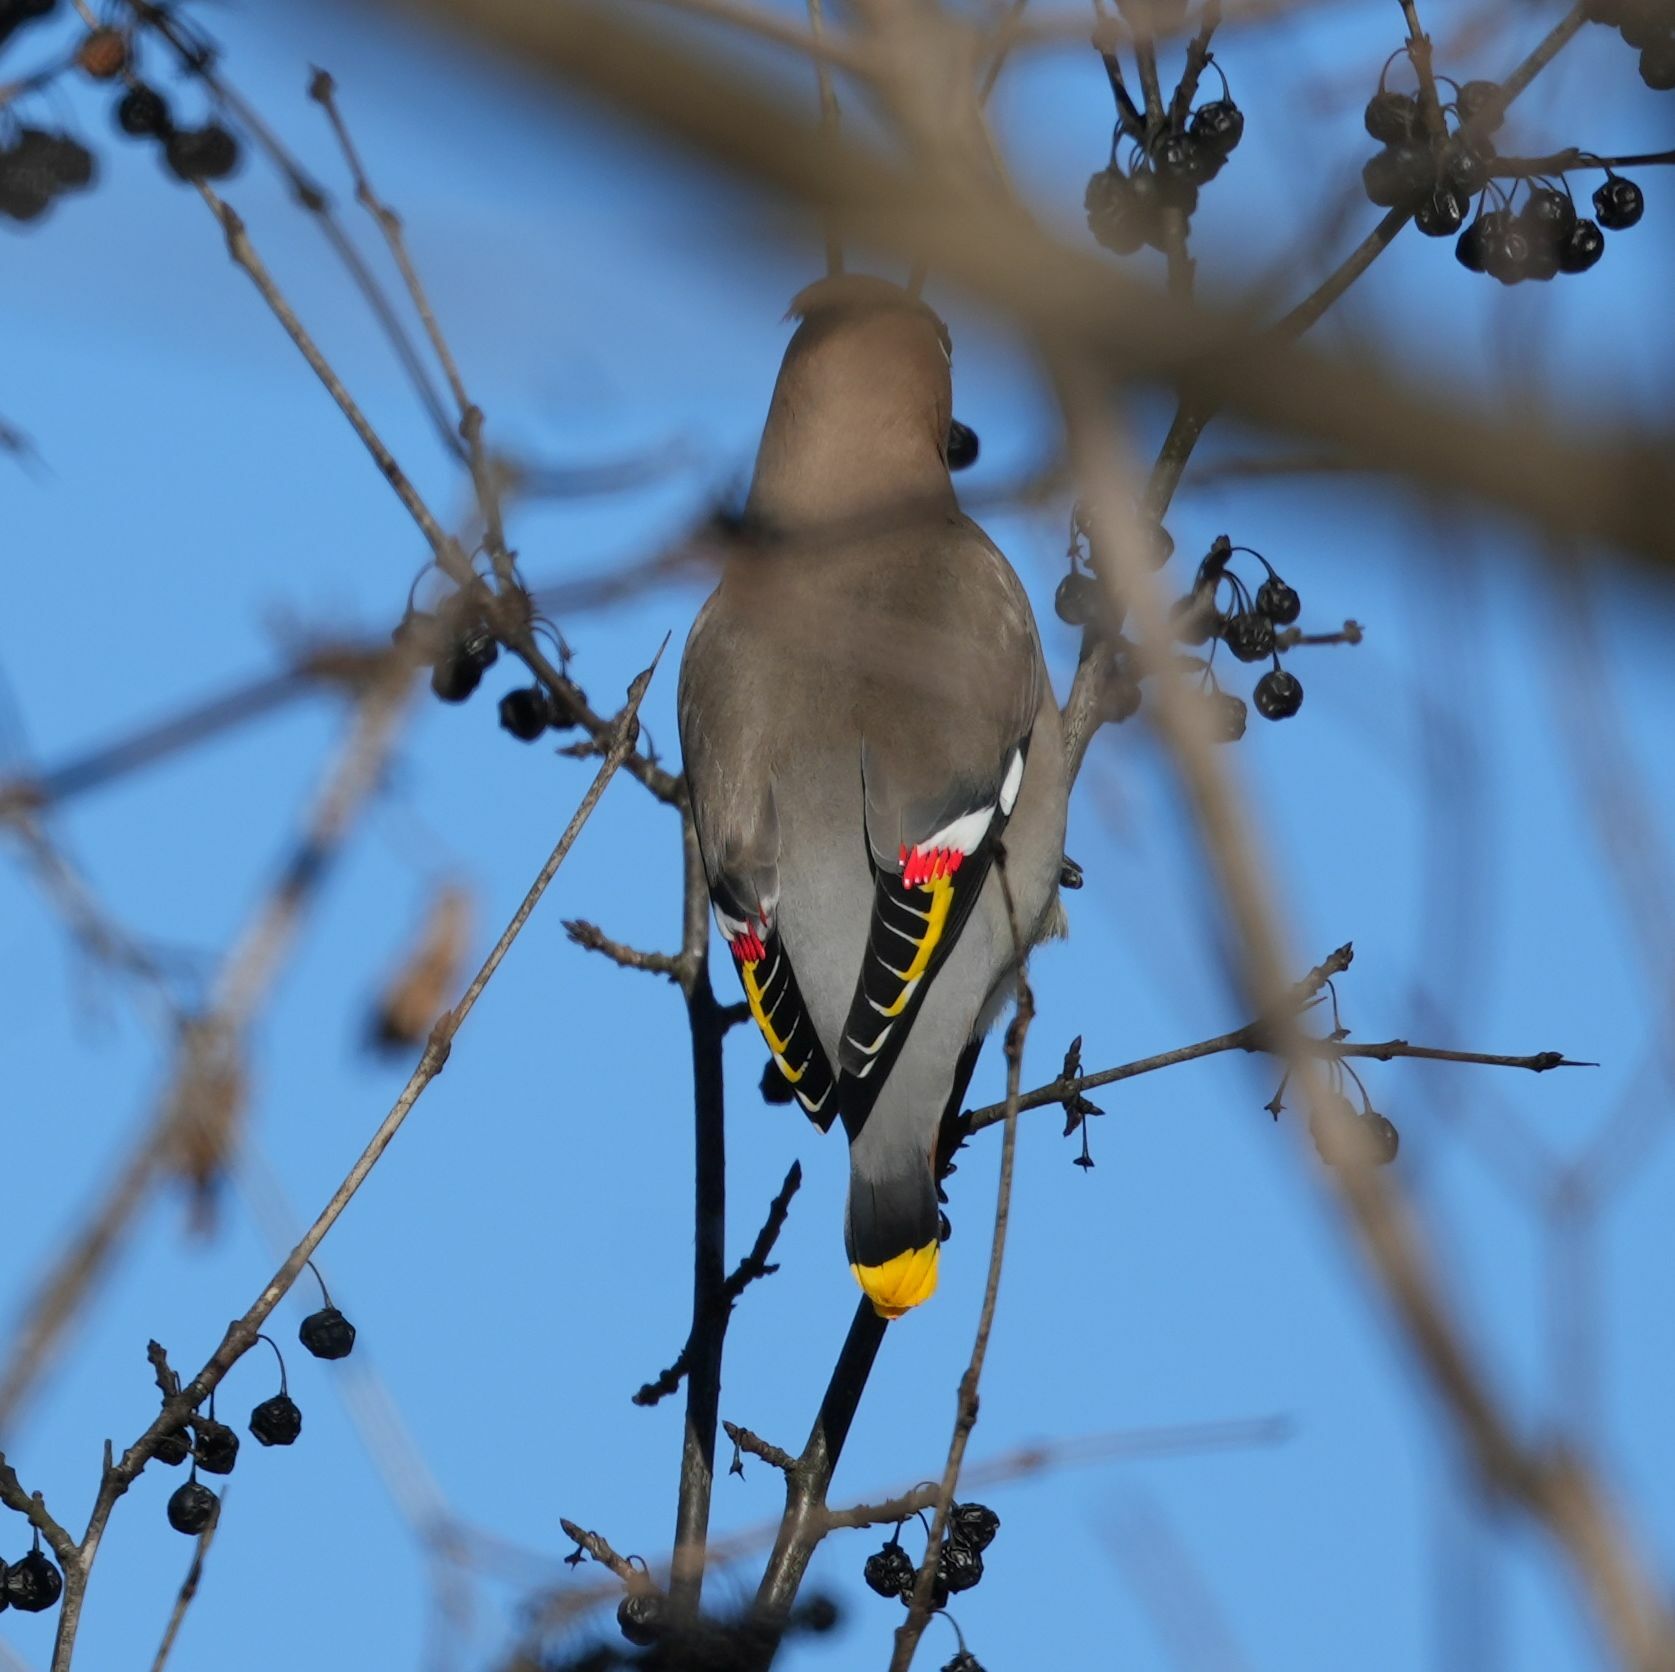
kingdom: Animalia
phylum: Chordata
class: Aves
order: Passeriformes
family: Bombycillidae
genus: Bombycilla
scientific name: Bombycilla garrulus
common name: Bohemian waxwing
